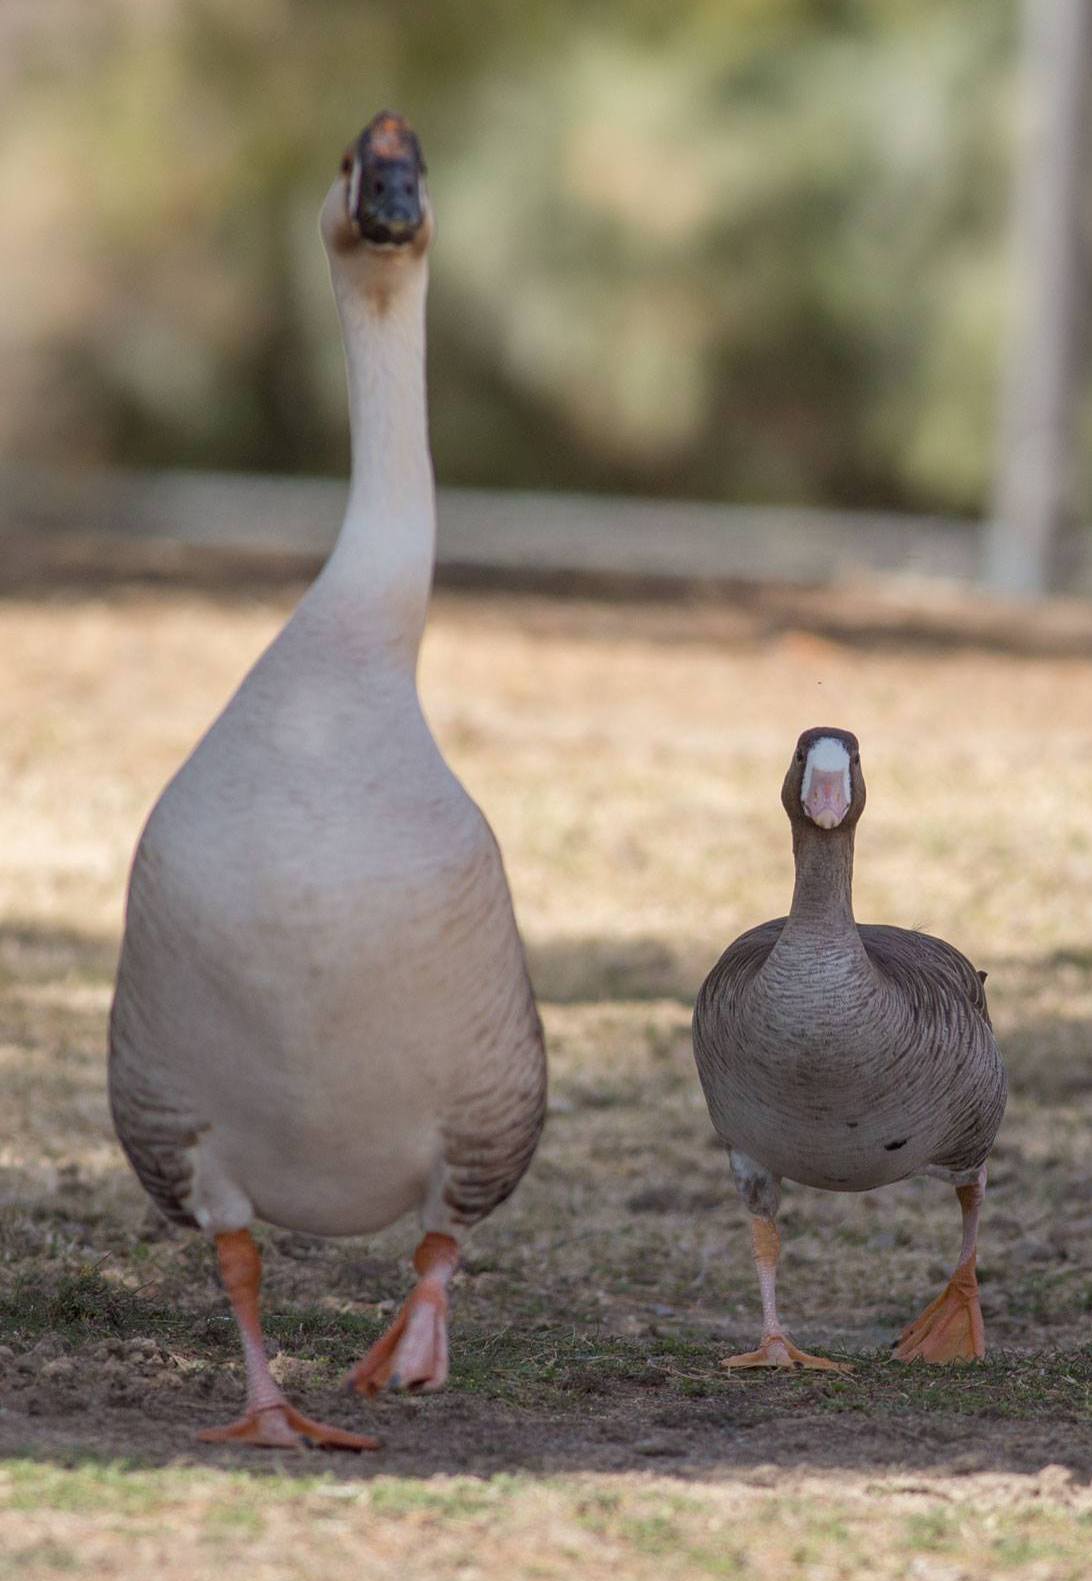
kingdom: Animalia
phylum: Chordata
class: Aves
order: Anseriformes
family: Anatidae
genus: Anser
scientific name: Anser albifrons
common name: Greater white-fronted goose
